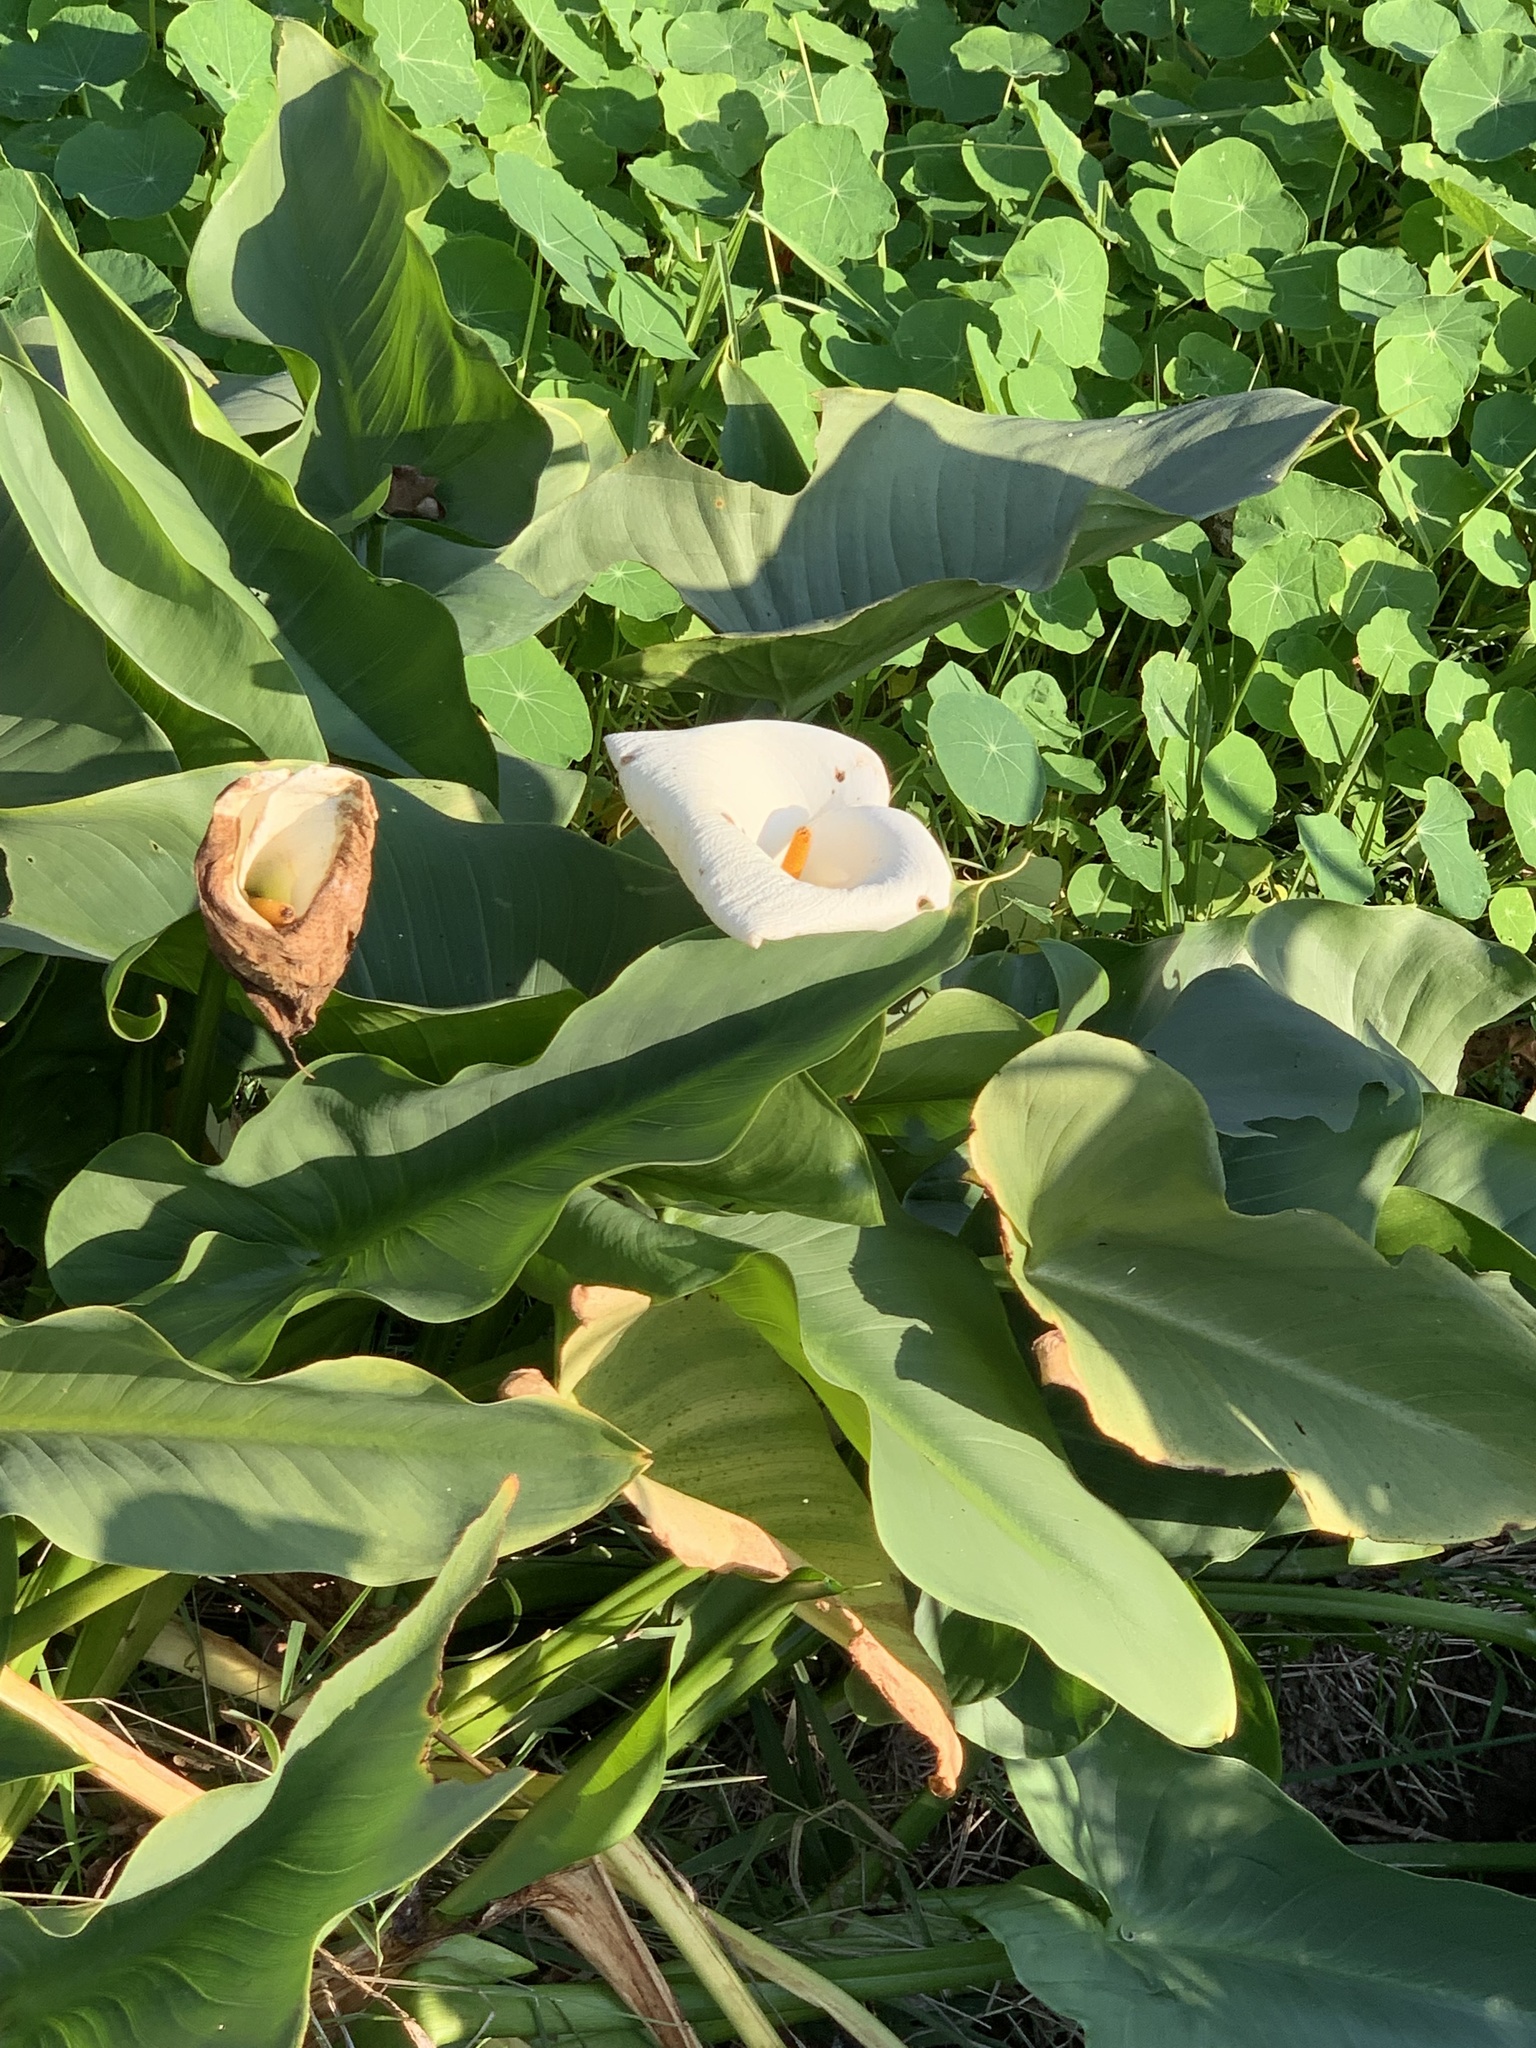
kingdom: Plantae
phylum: Tracheophyta
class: Liliopsida
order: Alismatales
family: Araceae
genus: Zantedeschia
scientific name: Zantedeschia aethiopica
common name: Altar-lily
